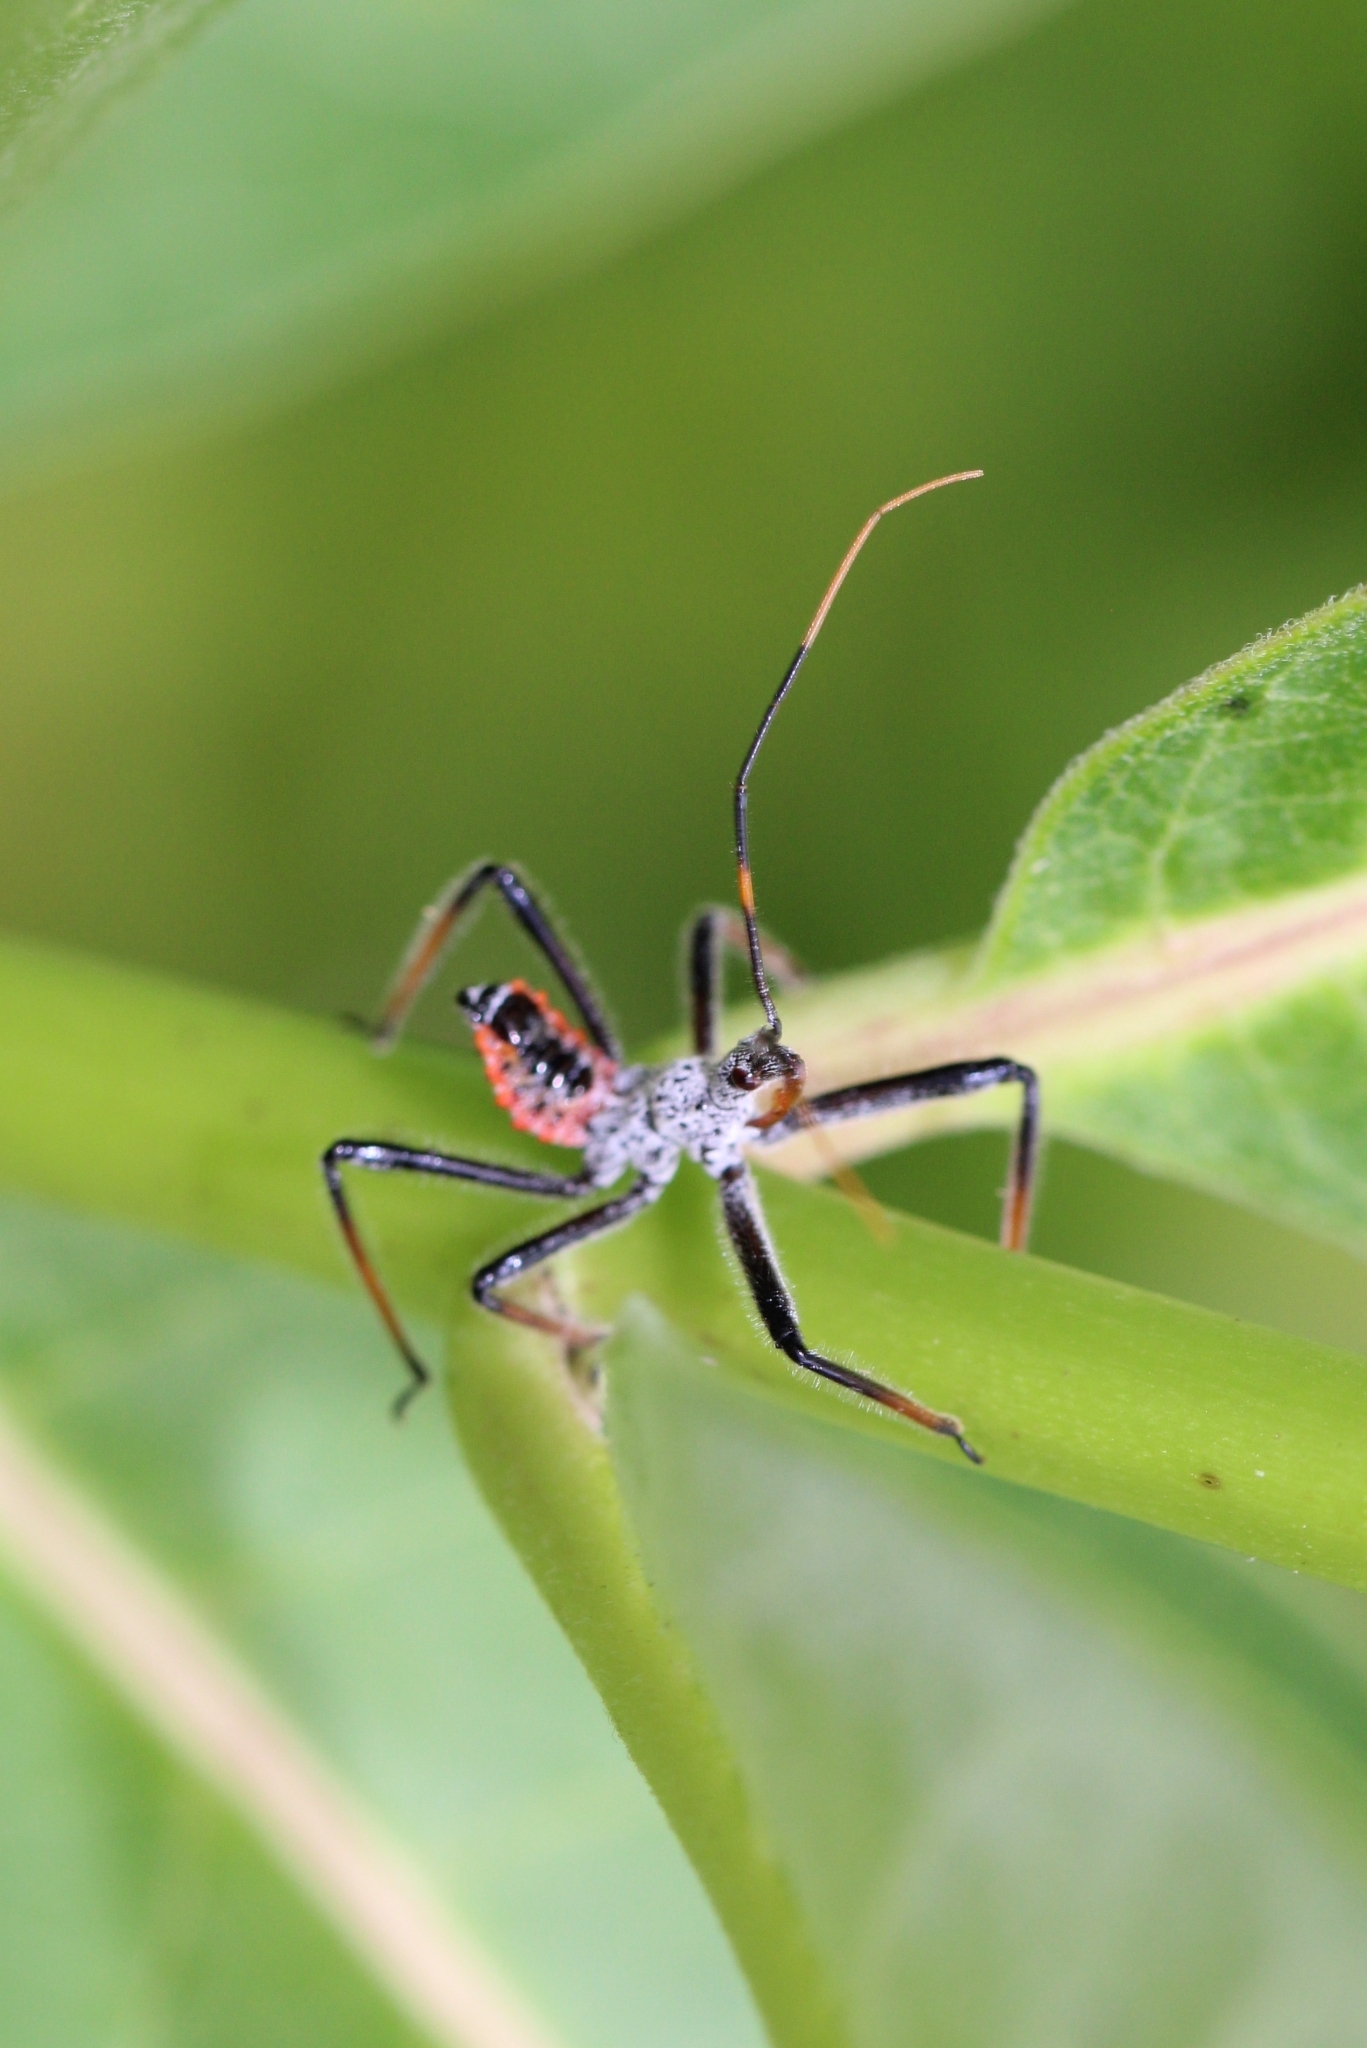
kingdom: Animalia
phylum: Arthropoda
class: Insecta
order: Hemiptera
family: Reduviidae
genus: Arilus
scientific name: Arilus cristatus
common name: North american wheel bug
